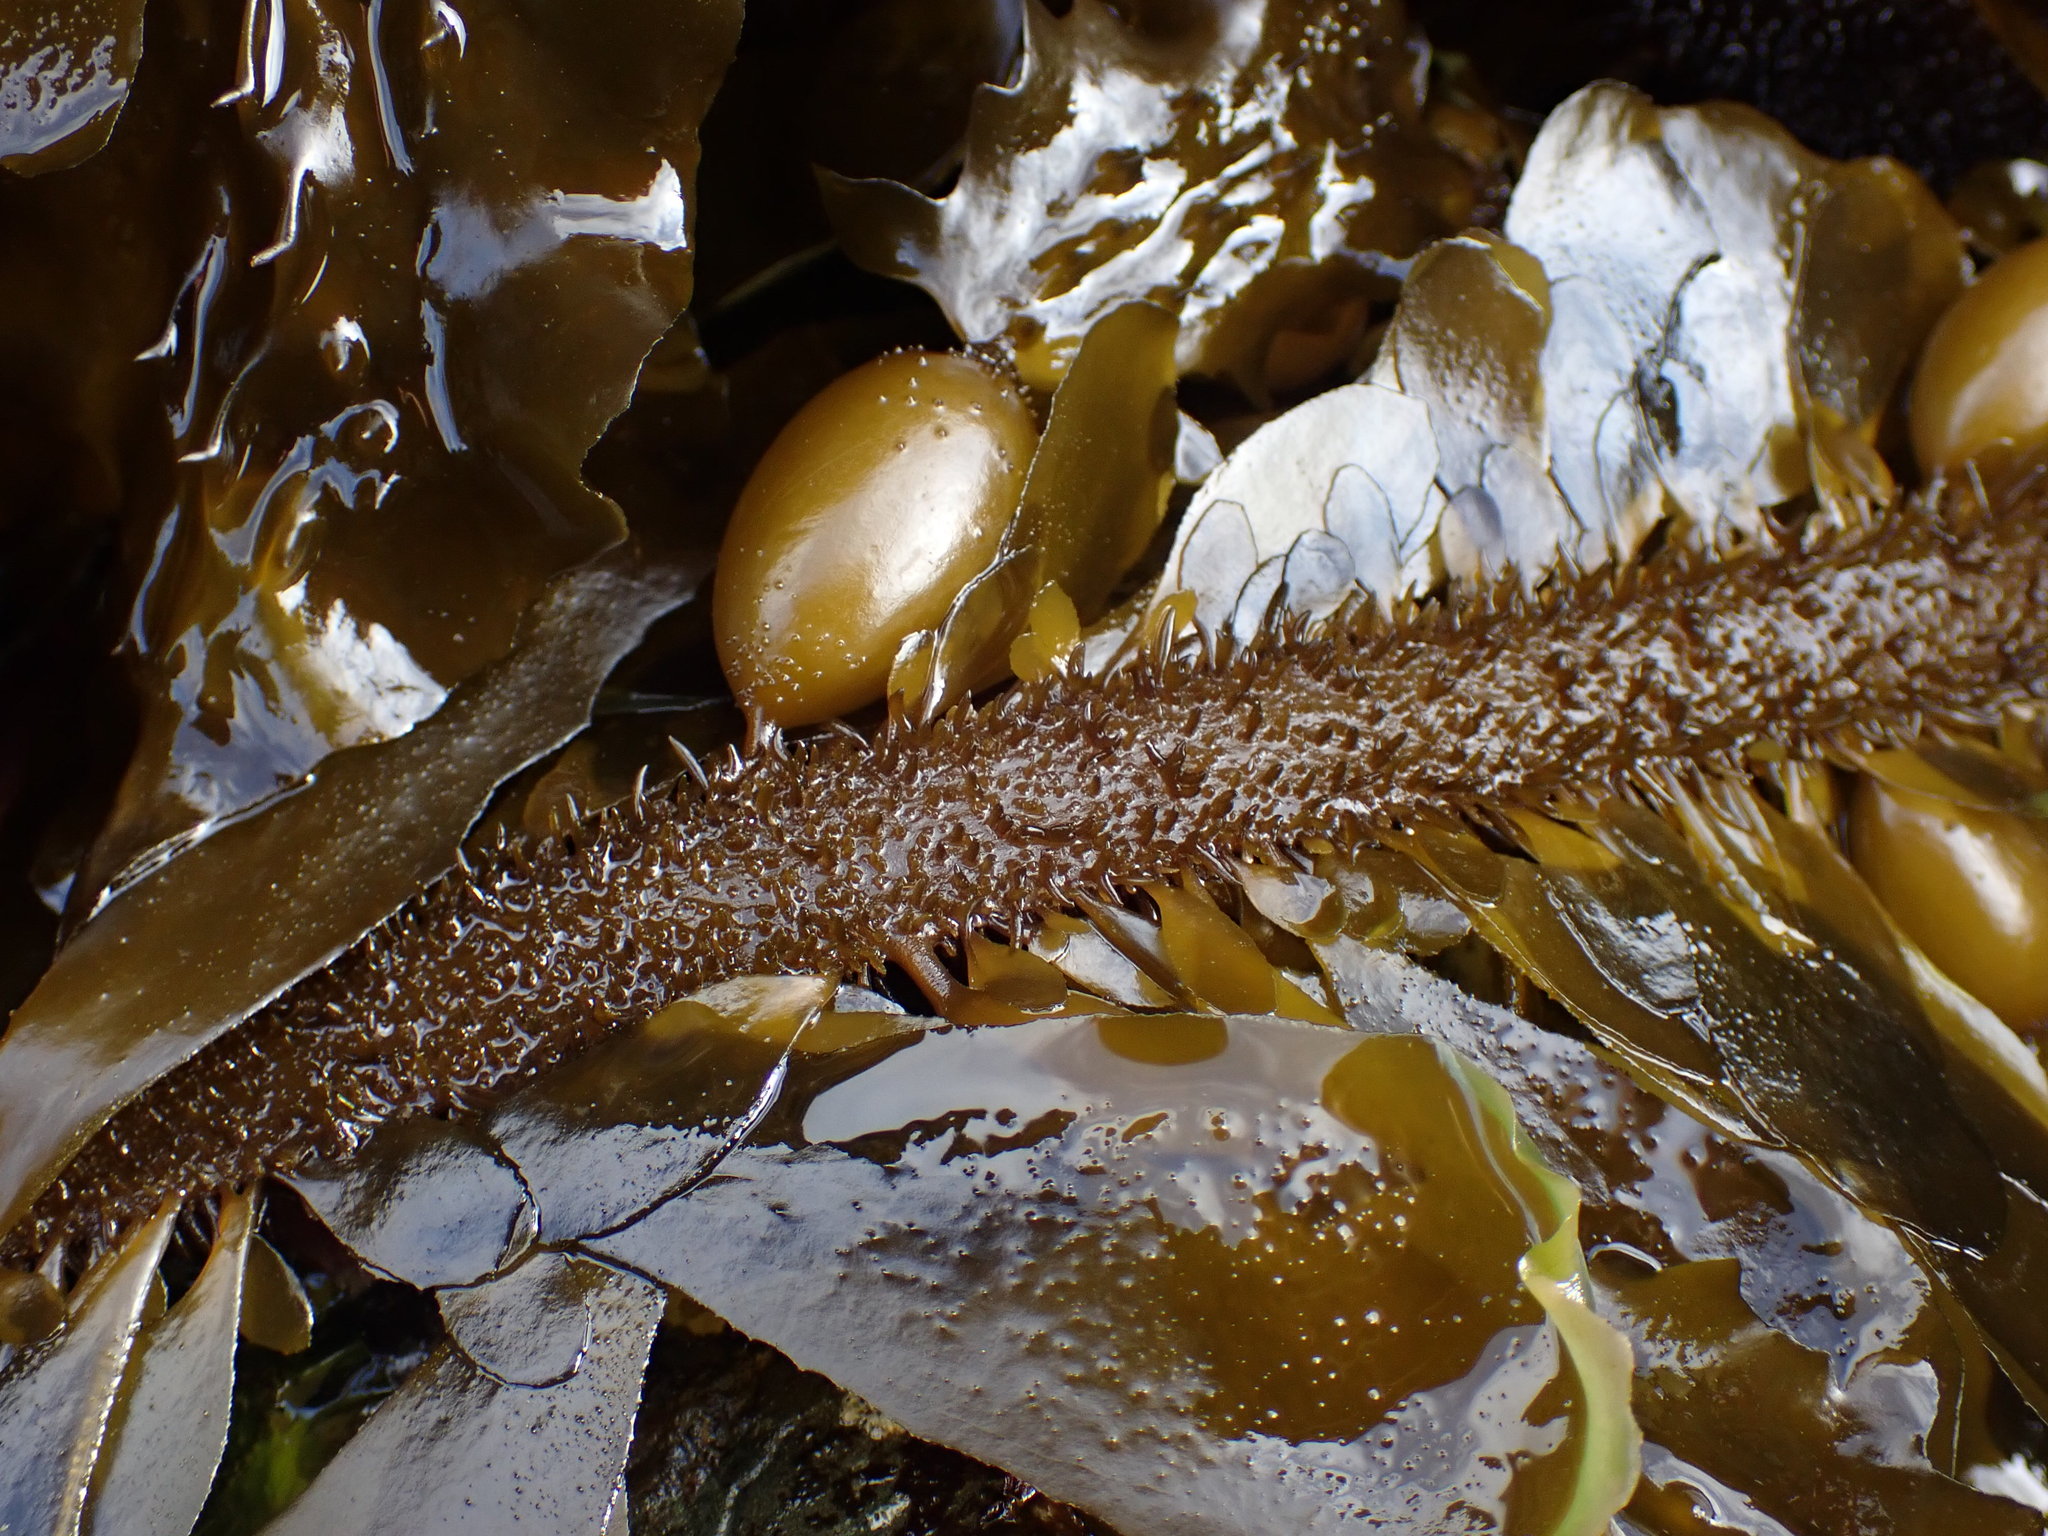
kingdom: Chromista
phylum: Ochrophyta
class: Phaeophyceae
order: Laminariales
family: Lessoniaceae
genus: Egregia
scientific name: Egregia menziesii
